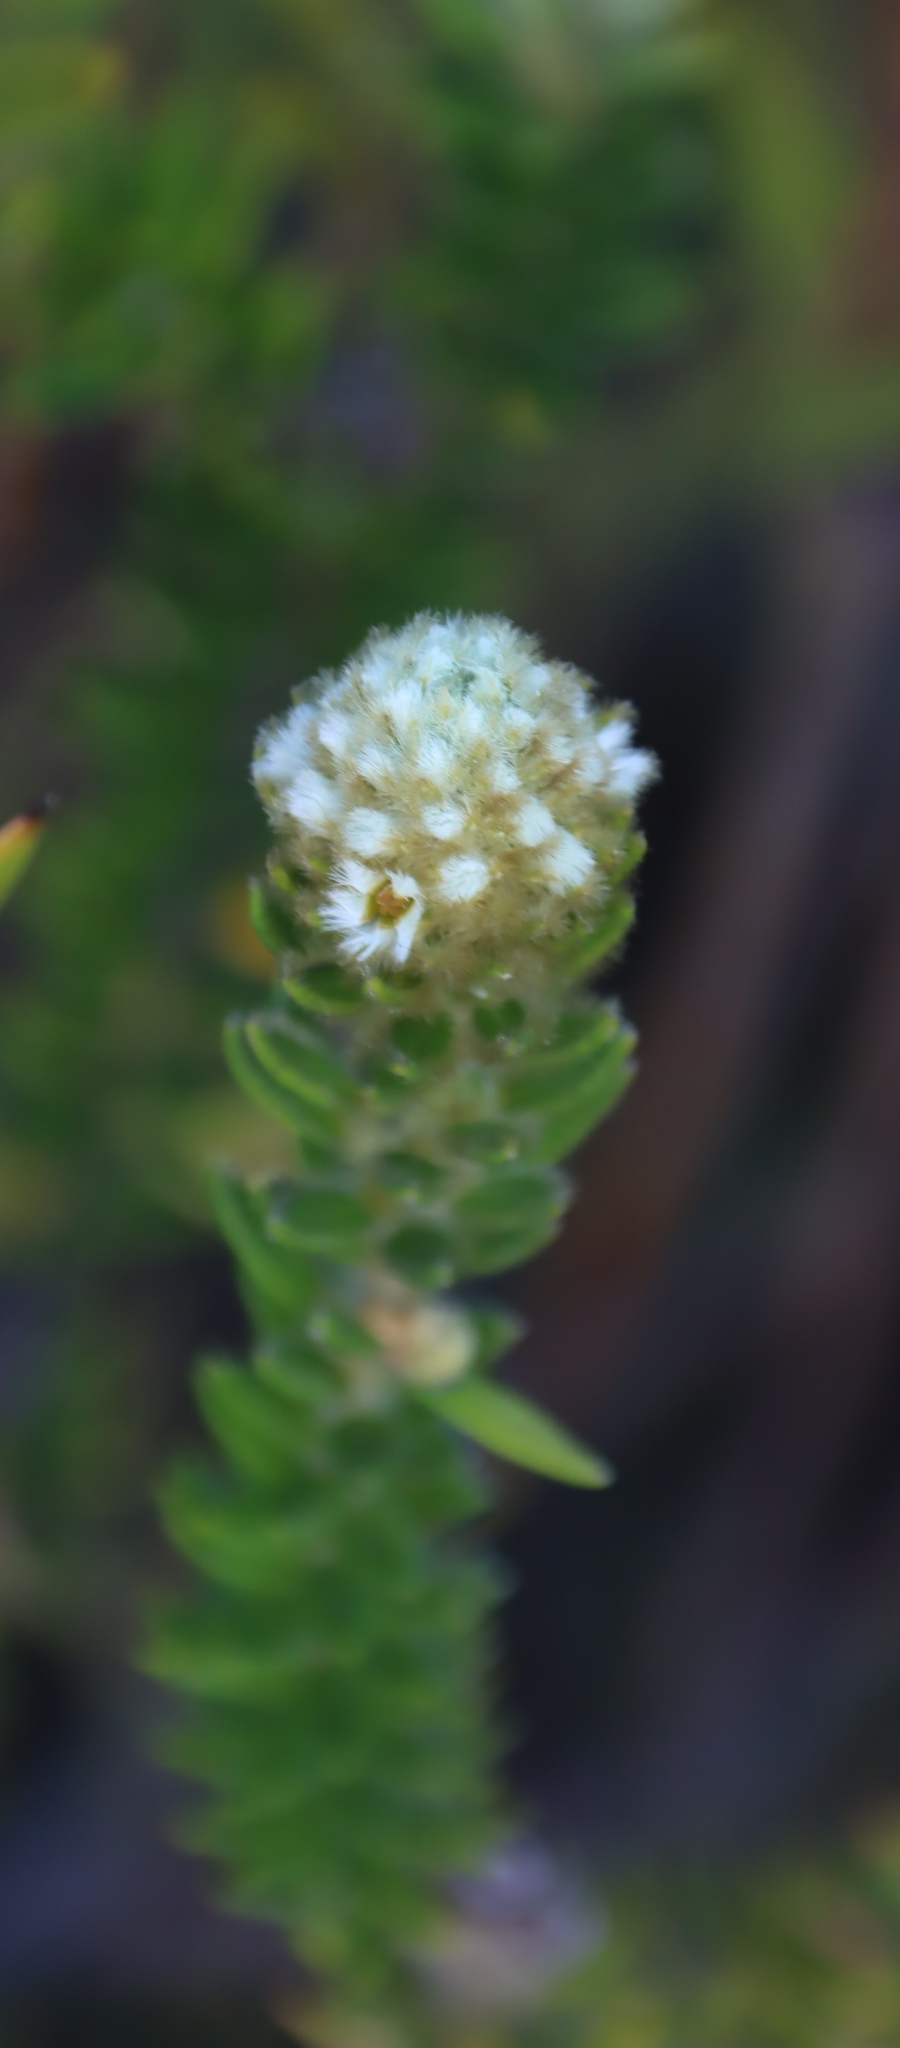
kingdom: Plantae
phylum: Tracheophyta
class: Magnoliopsida
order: Rosales
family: Rhamnaceae
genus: Phylica
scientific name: Phylica strigosa
